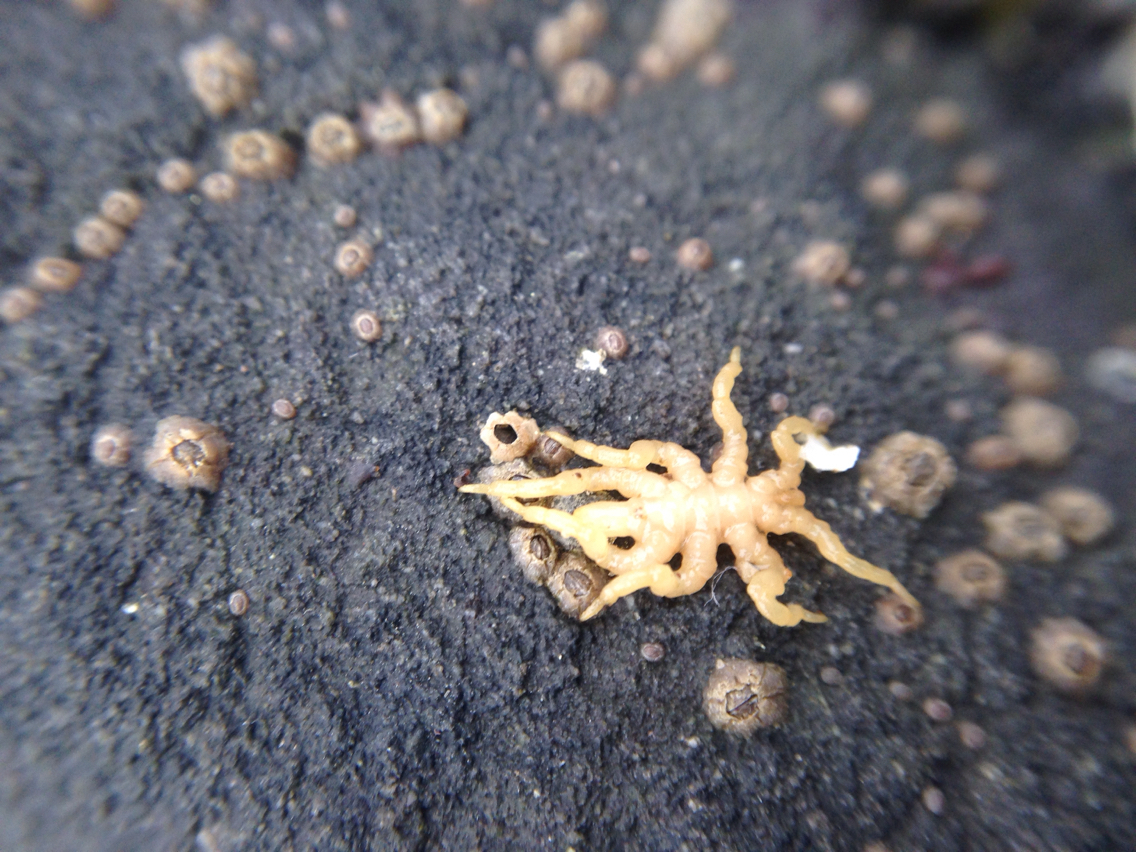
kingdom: Animalia
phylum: Arthropoda
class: Pycnogonida
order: Pantopoda
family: Pycnogonidae
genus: Pycnogonum
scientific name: Pycnogonum stearnsi
